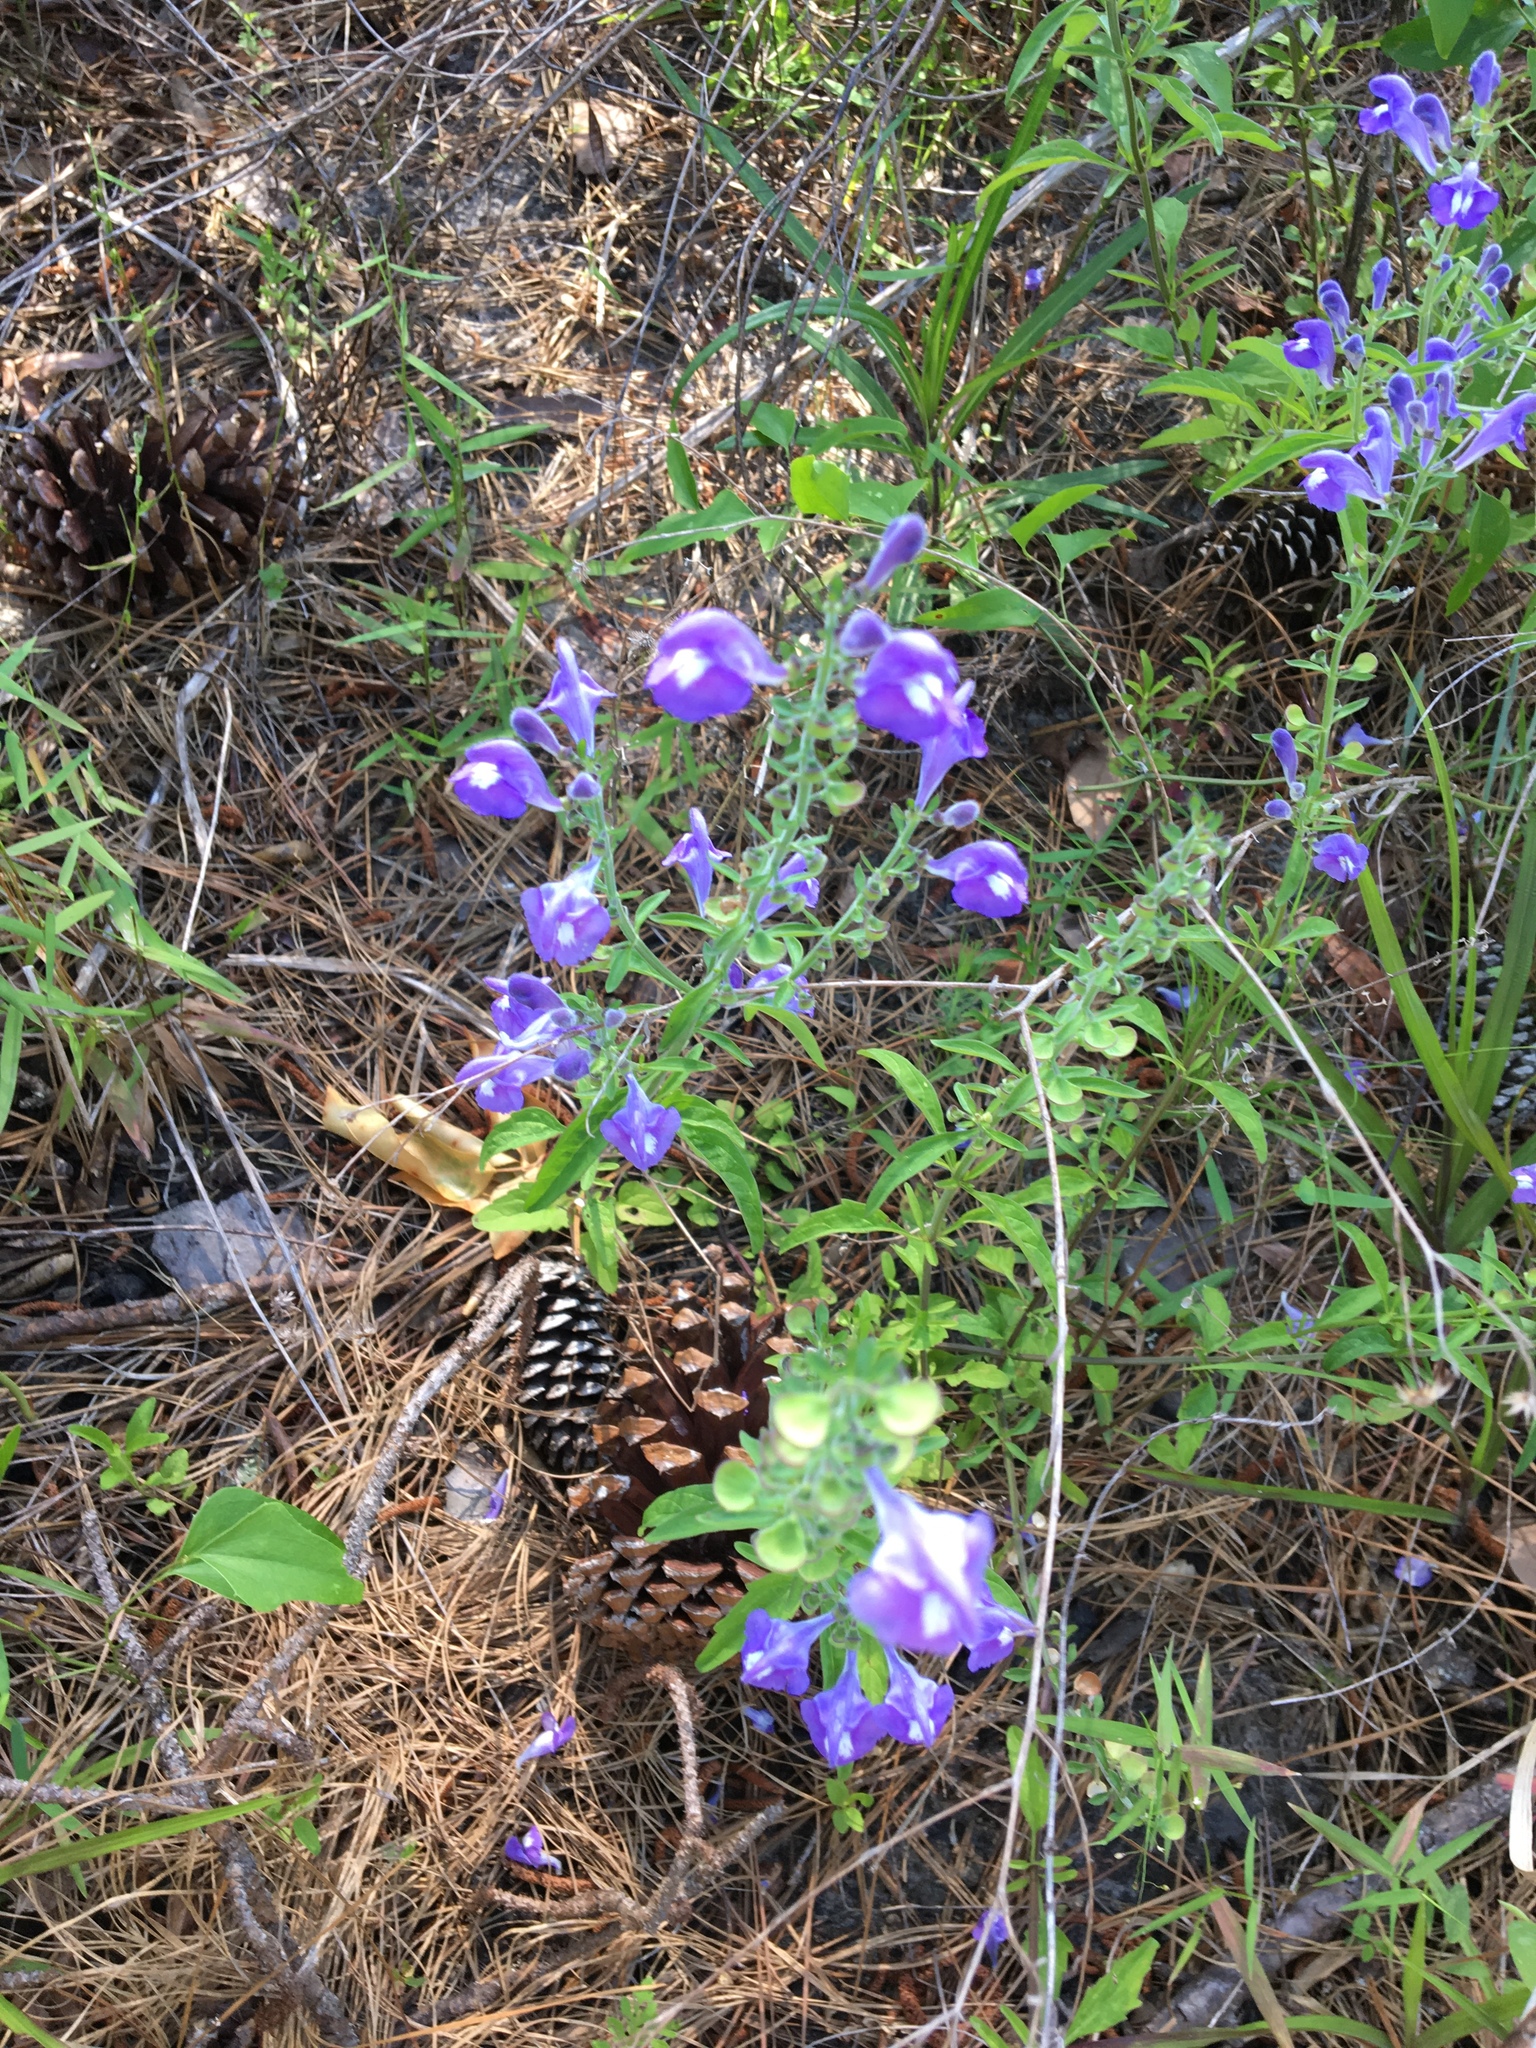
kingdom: Plantae
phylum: Tracheophyta
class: Magnoliopsida
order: Lamiales
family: Lamiaceae
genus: Scutellaria
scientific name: Scutellaria integrifolia
